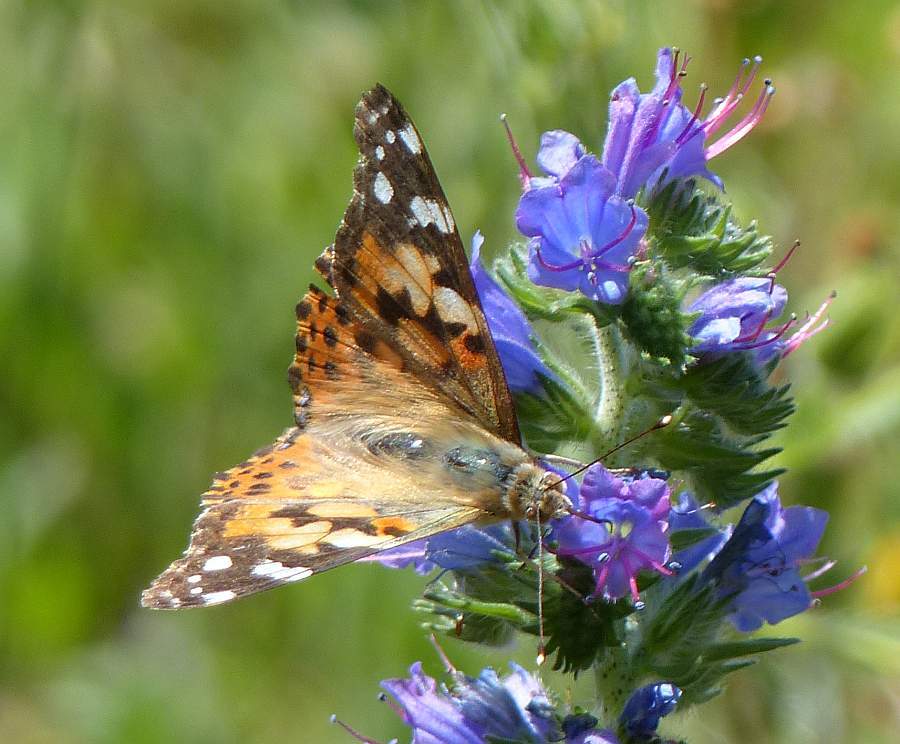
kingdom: Animalia
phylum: Arthropoda
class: Insecta
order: Lepidoptera
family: Nymphalidae
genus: Vanessa
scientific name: Vanessa cardui
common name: Painted lady
